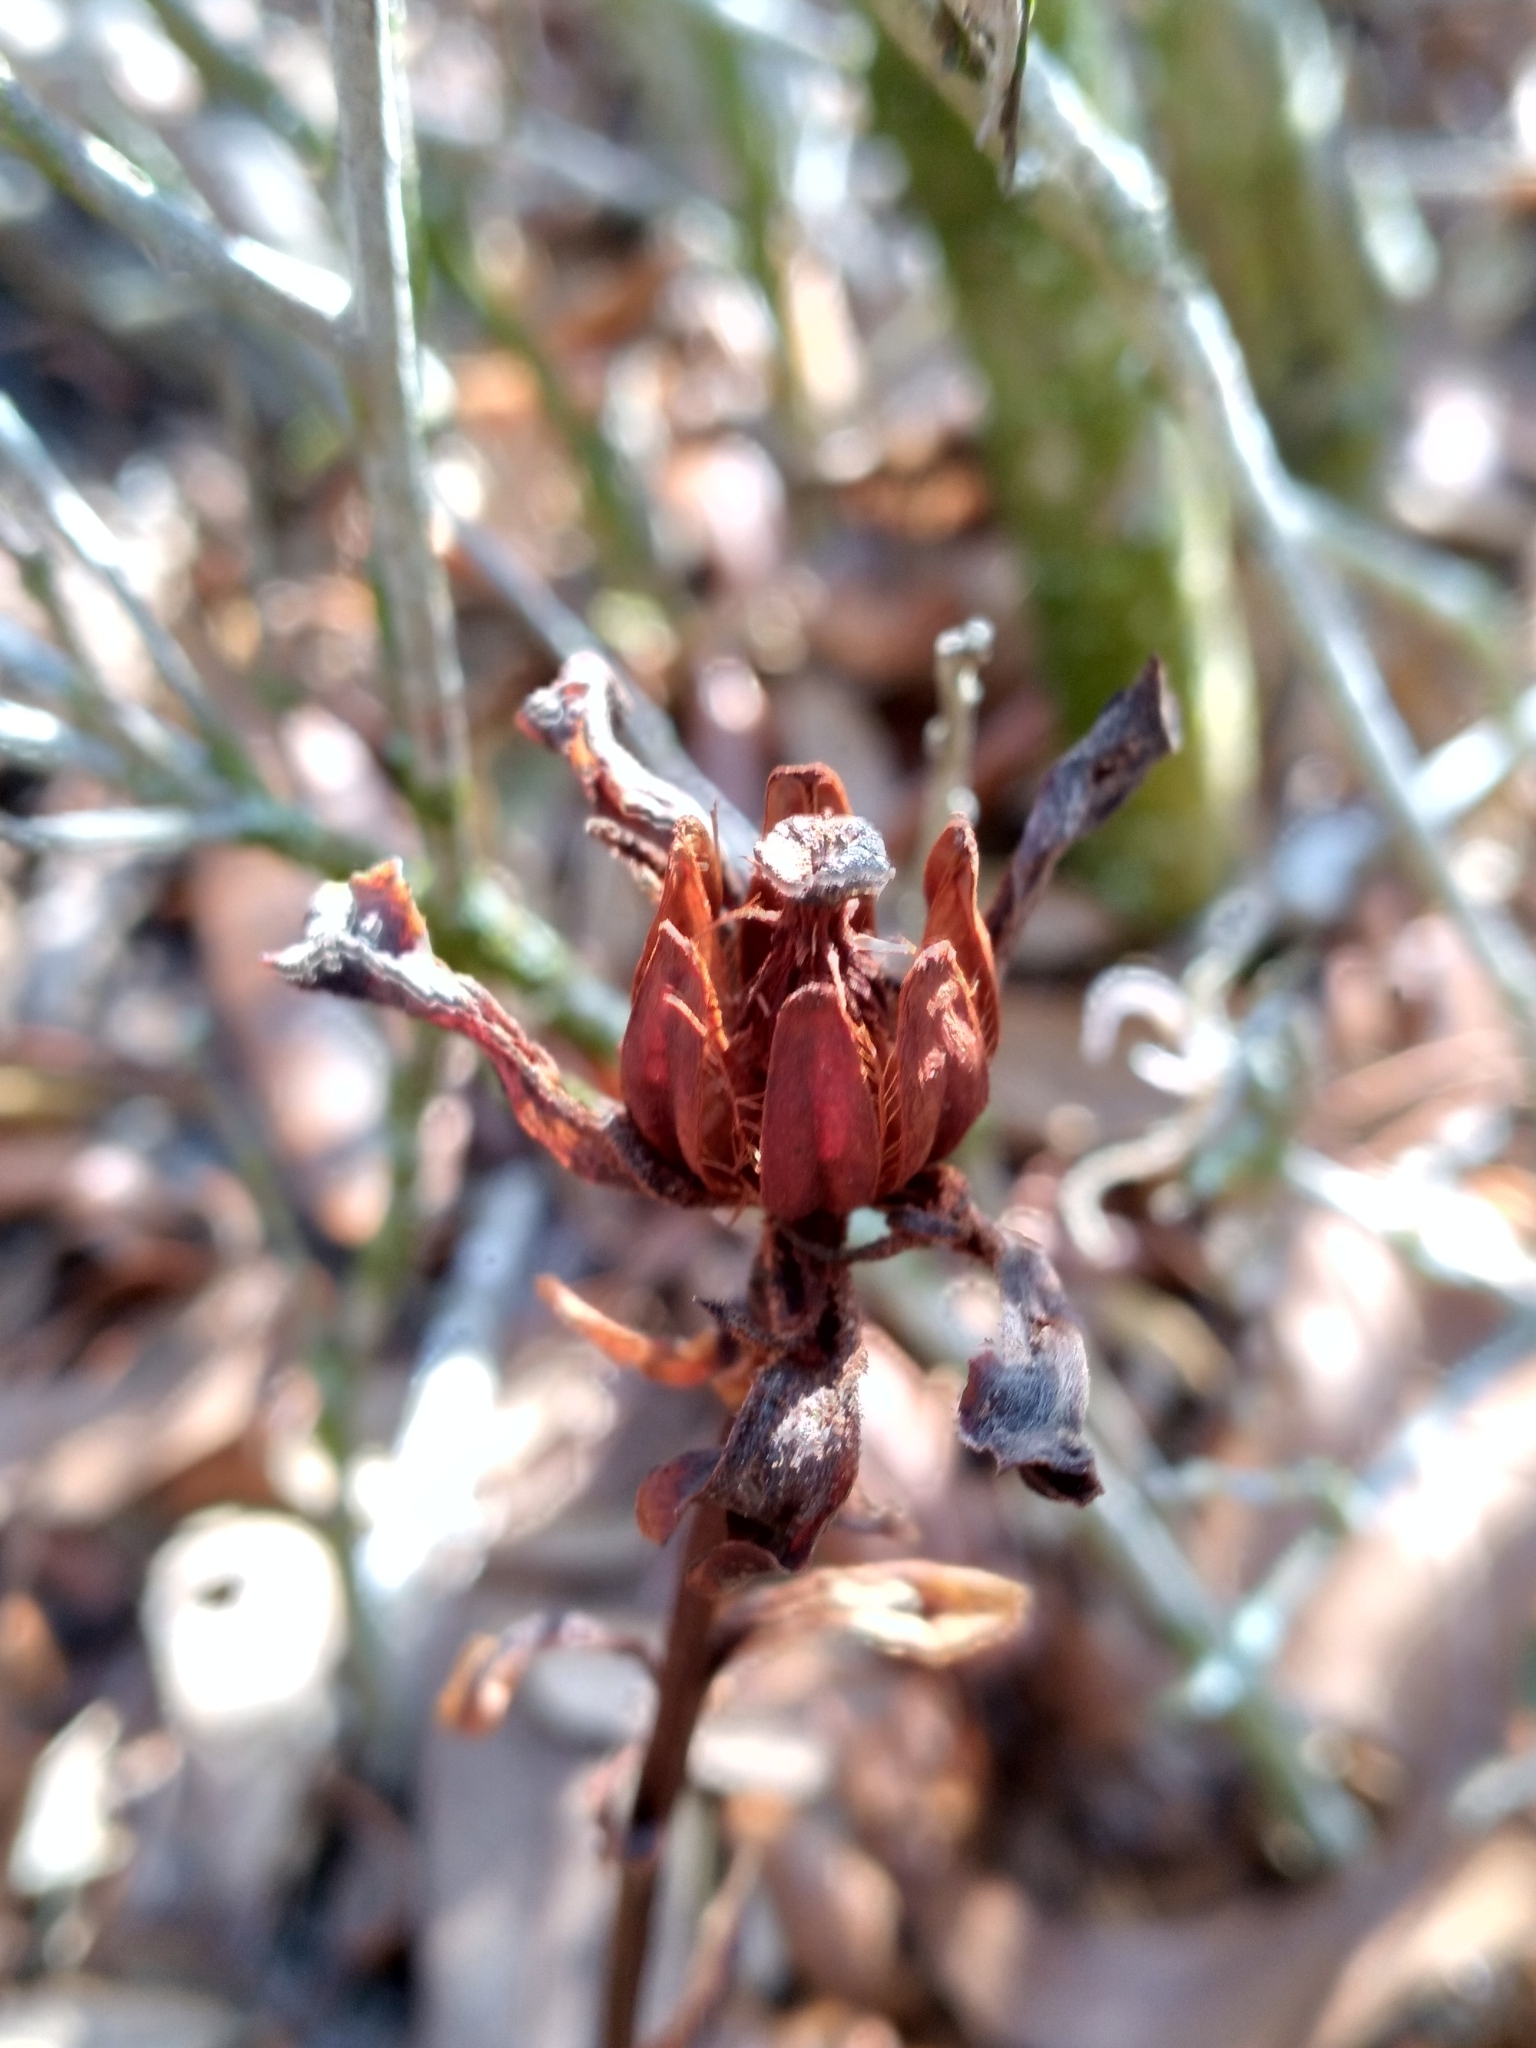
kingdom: Plantae
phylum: Tracheophyta
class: Magnoliopsida
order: Ericales
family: Ericaceae
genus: Monotropa
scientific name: Monotropa uniflora
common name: Convulsion root
